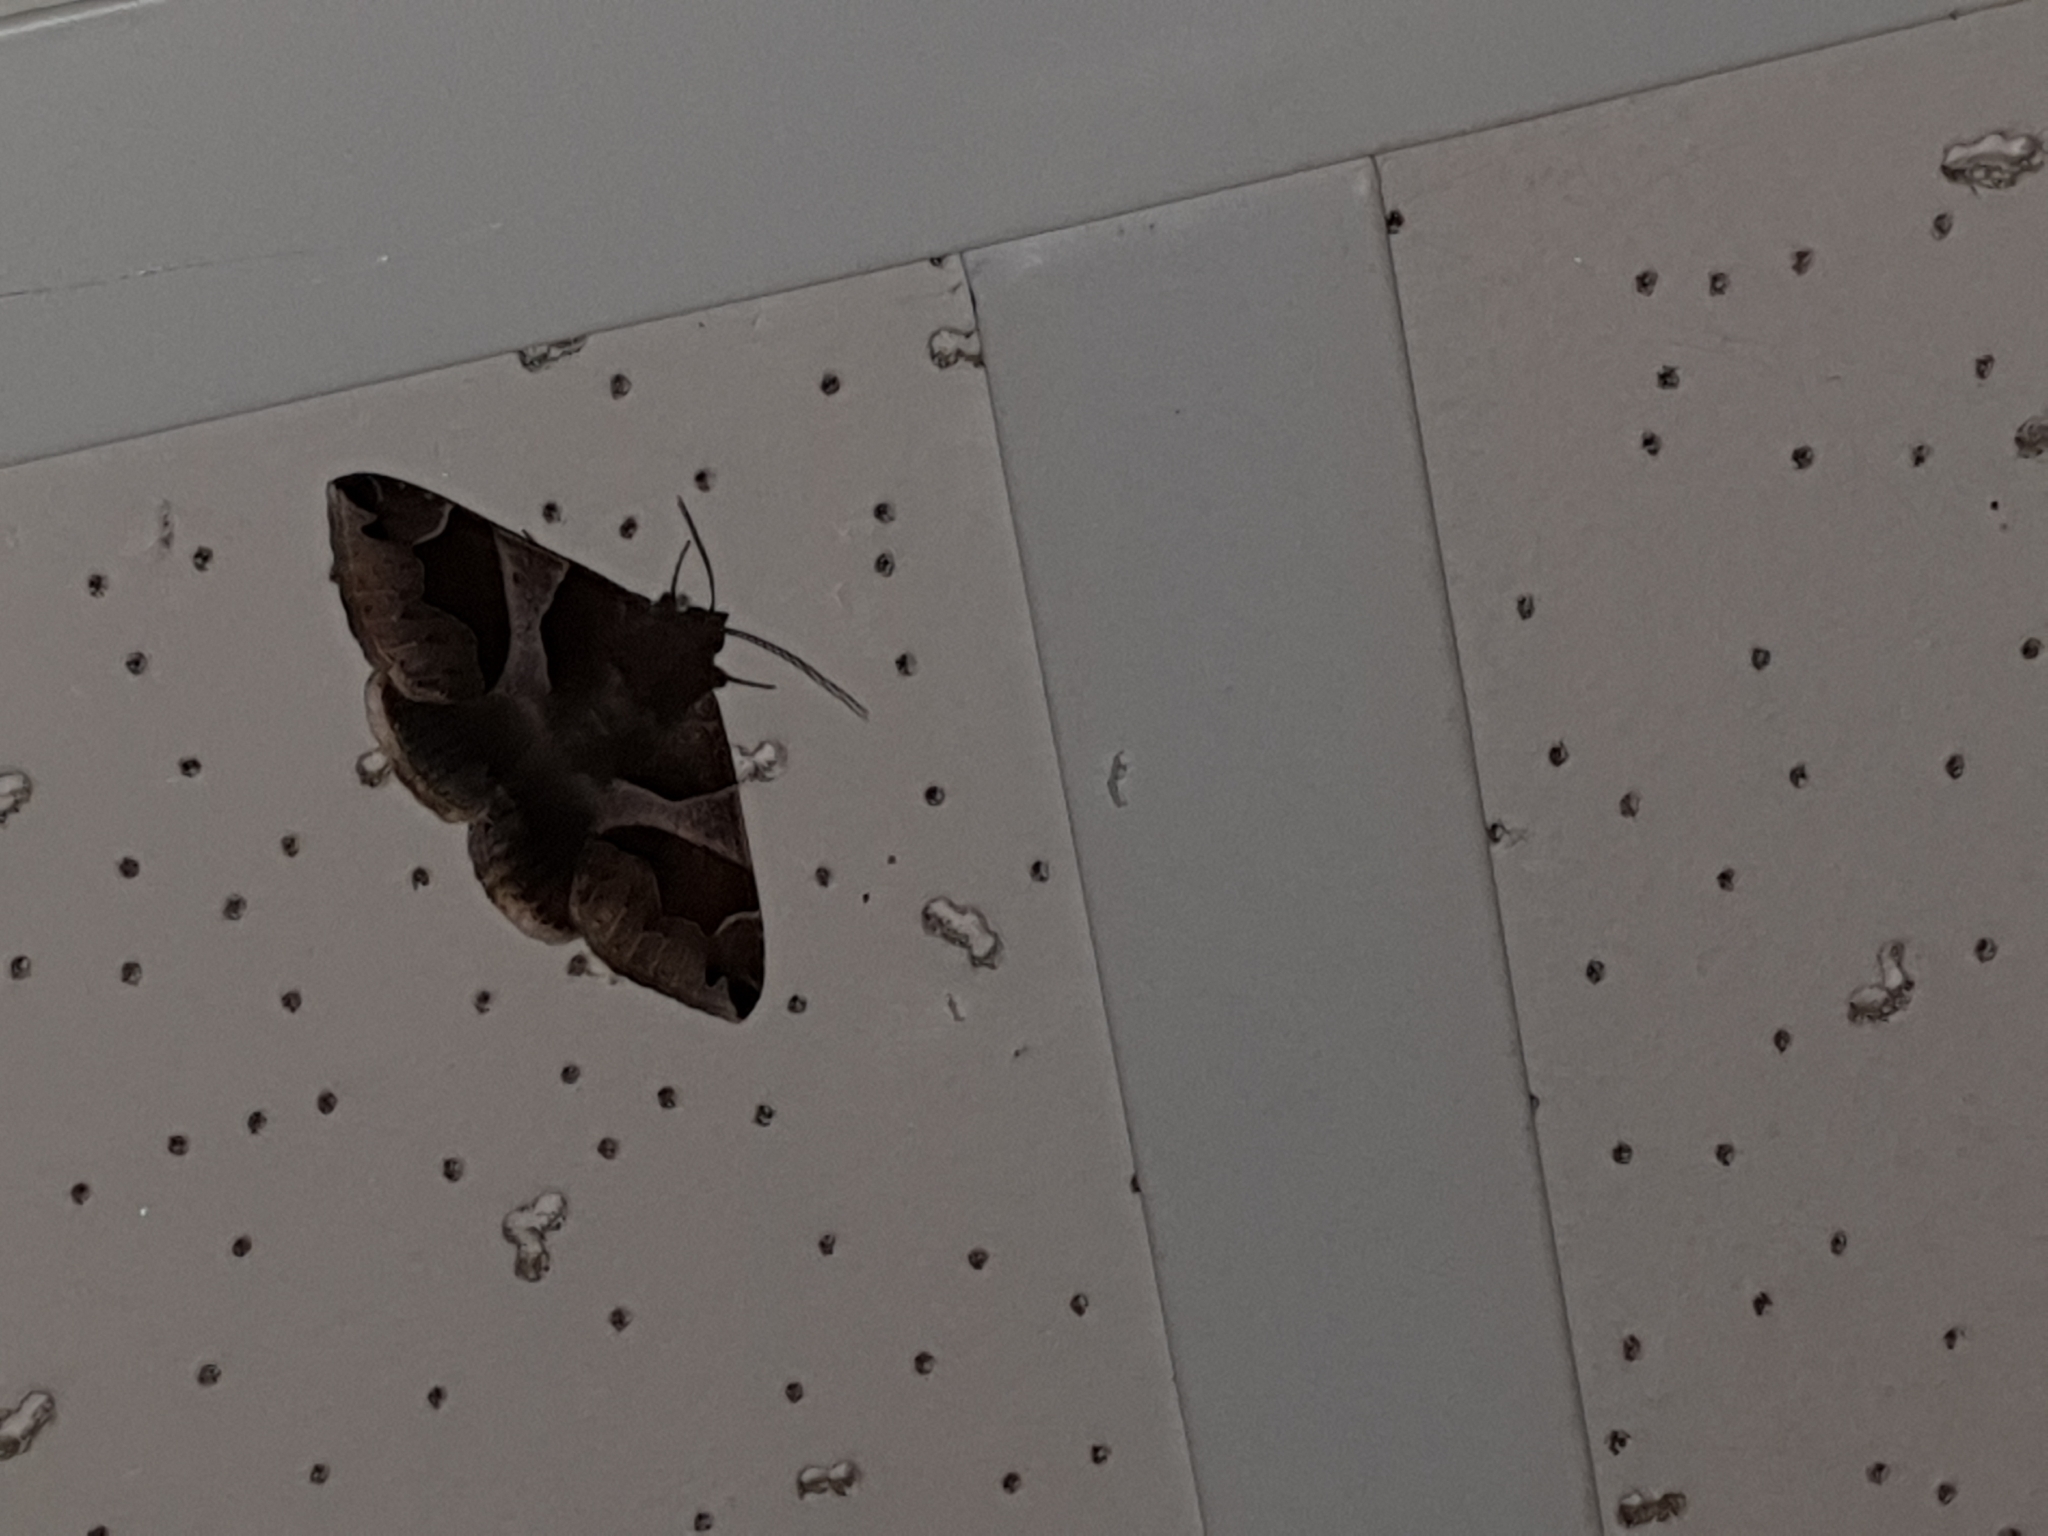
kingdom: Animalia
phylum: Arthropoda
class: Insecta
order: Lepidoptera
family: Erebidae
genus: Dysgonia
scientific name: Dysgonia algira
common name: Passenger
